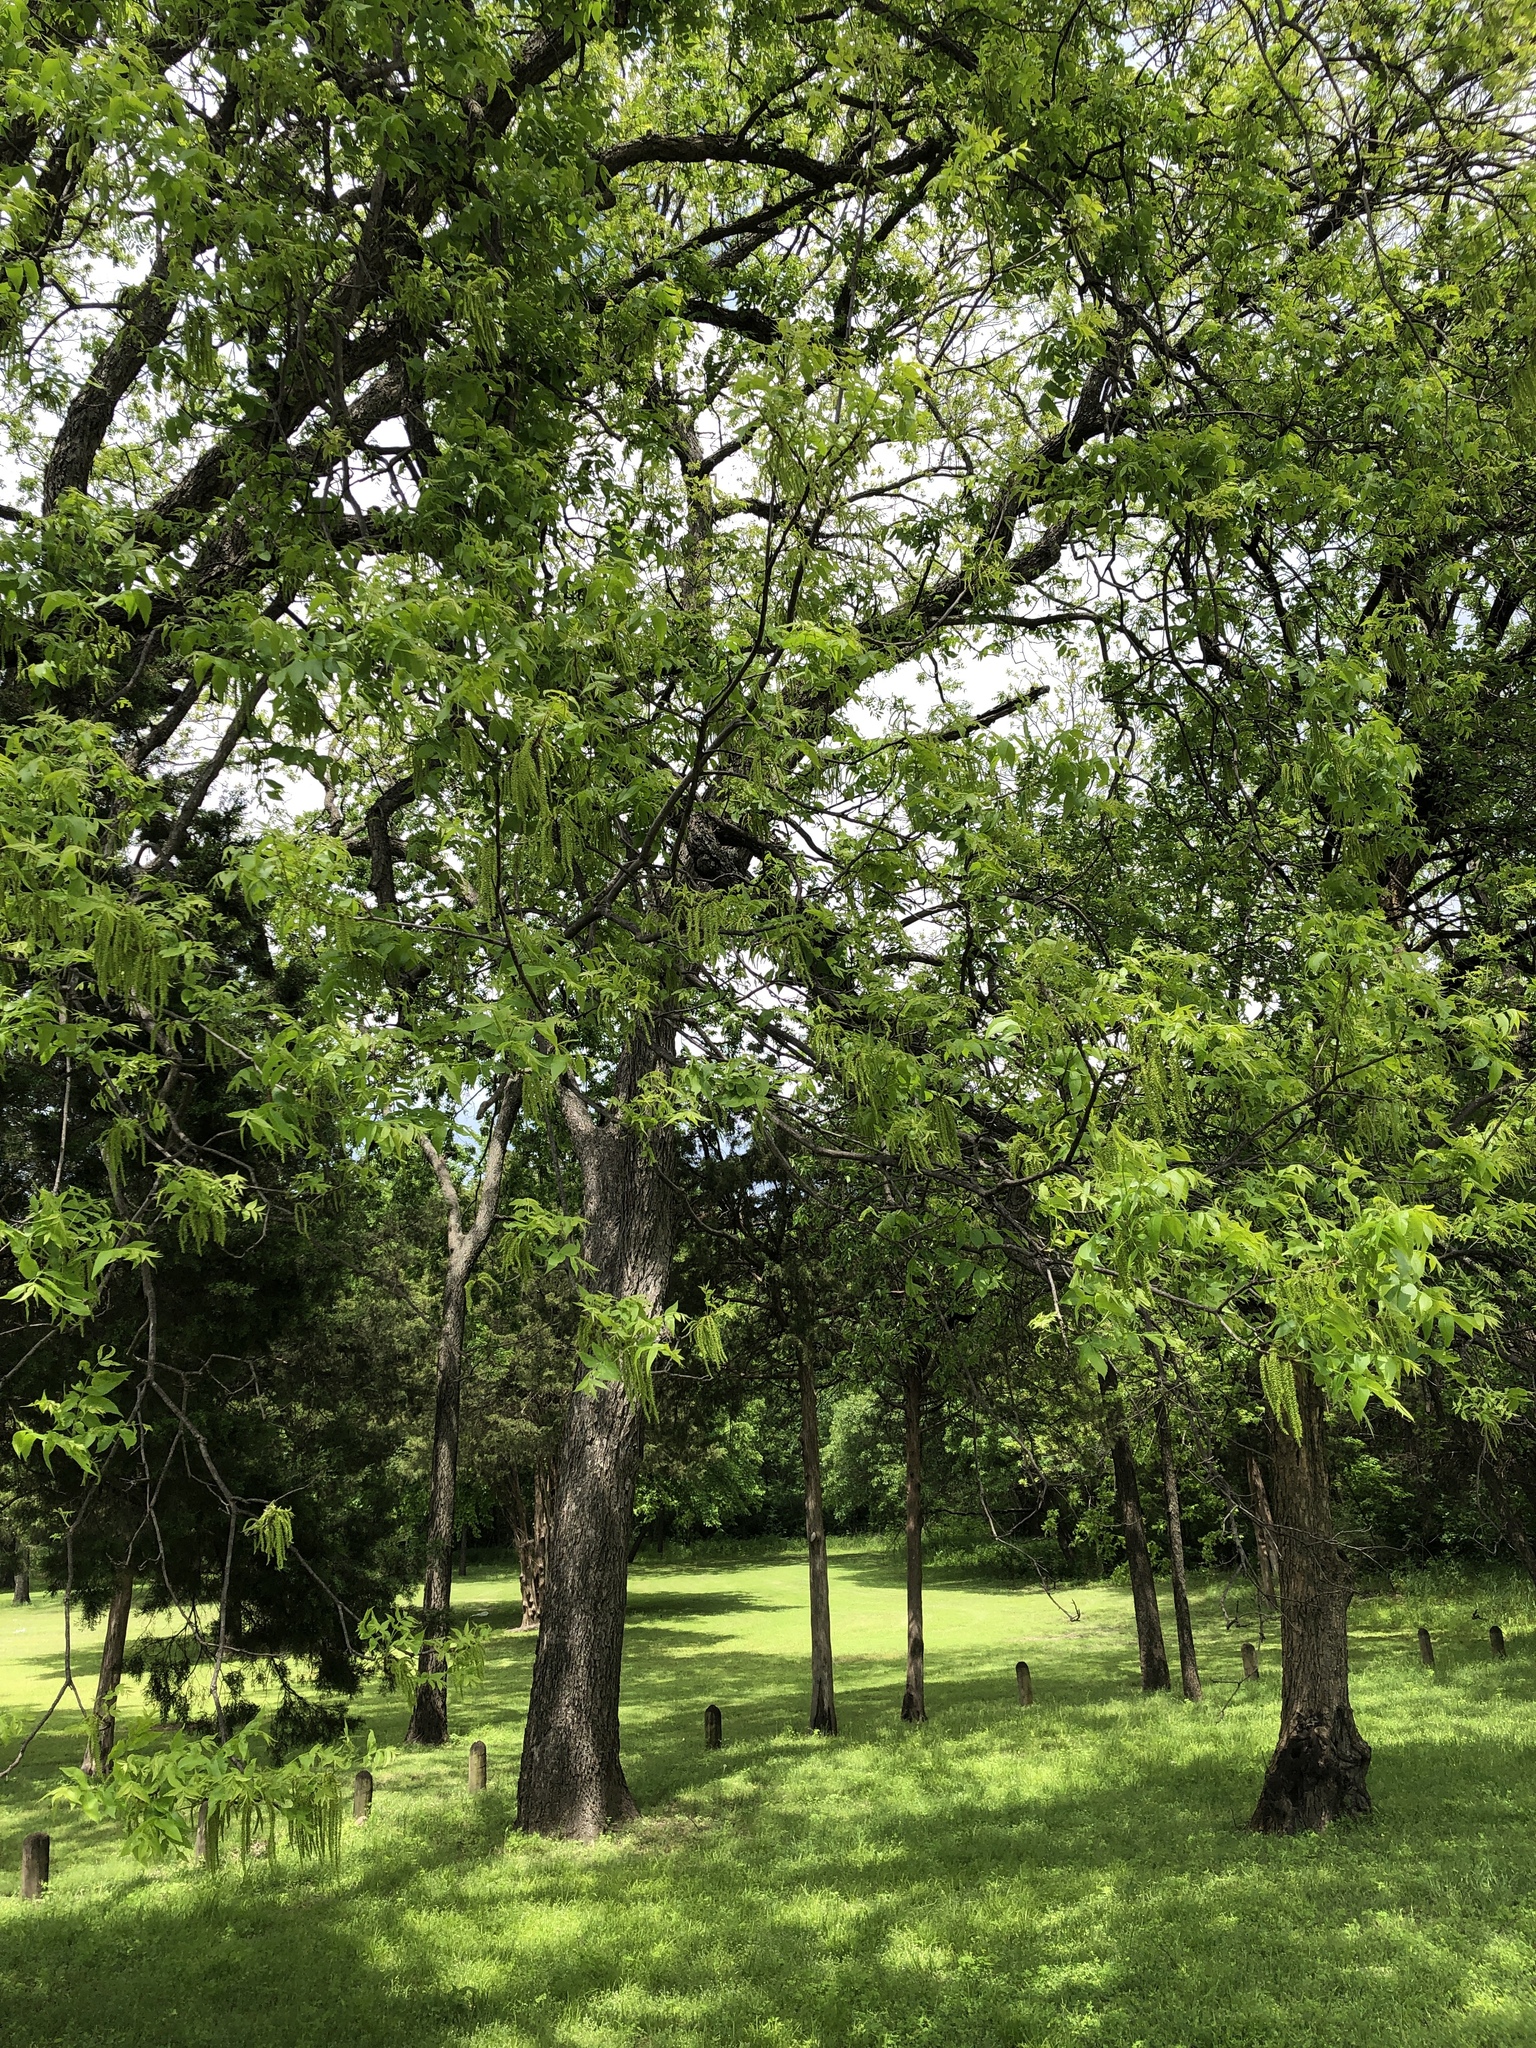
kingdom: Plantae
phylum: Tracheophyta
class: Magnoliopsida
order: Fagales
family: Juglandaceae
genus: Carya
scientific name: Carya illinoinensis
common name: Pecan
